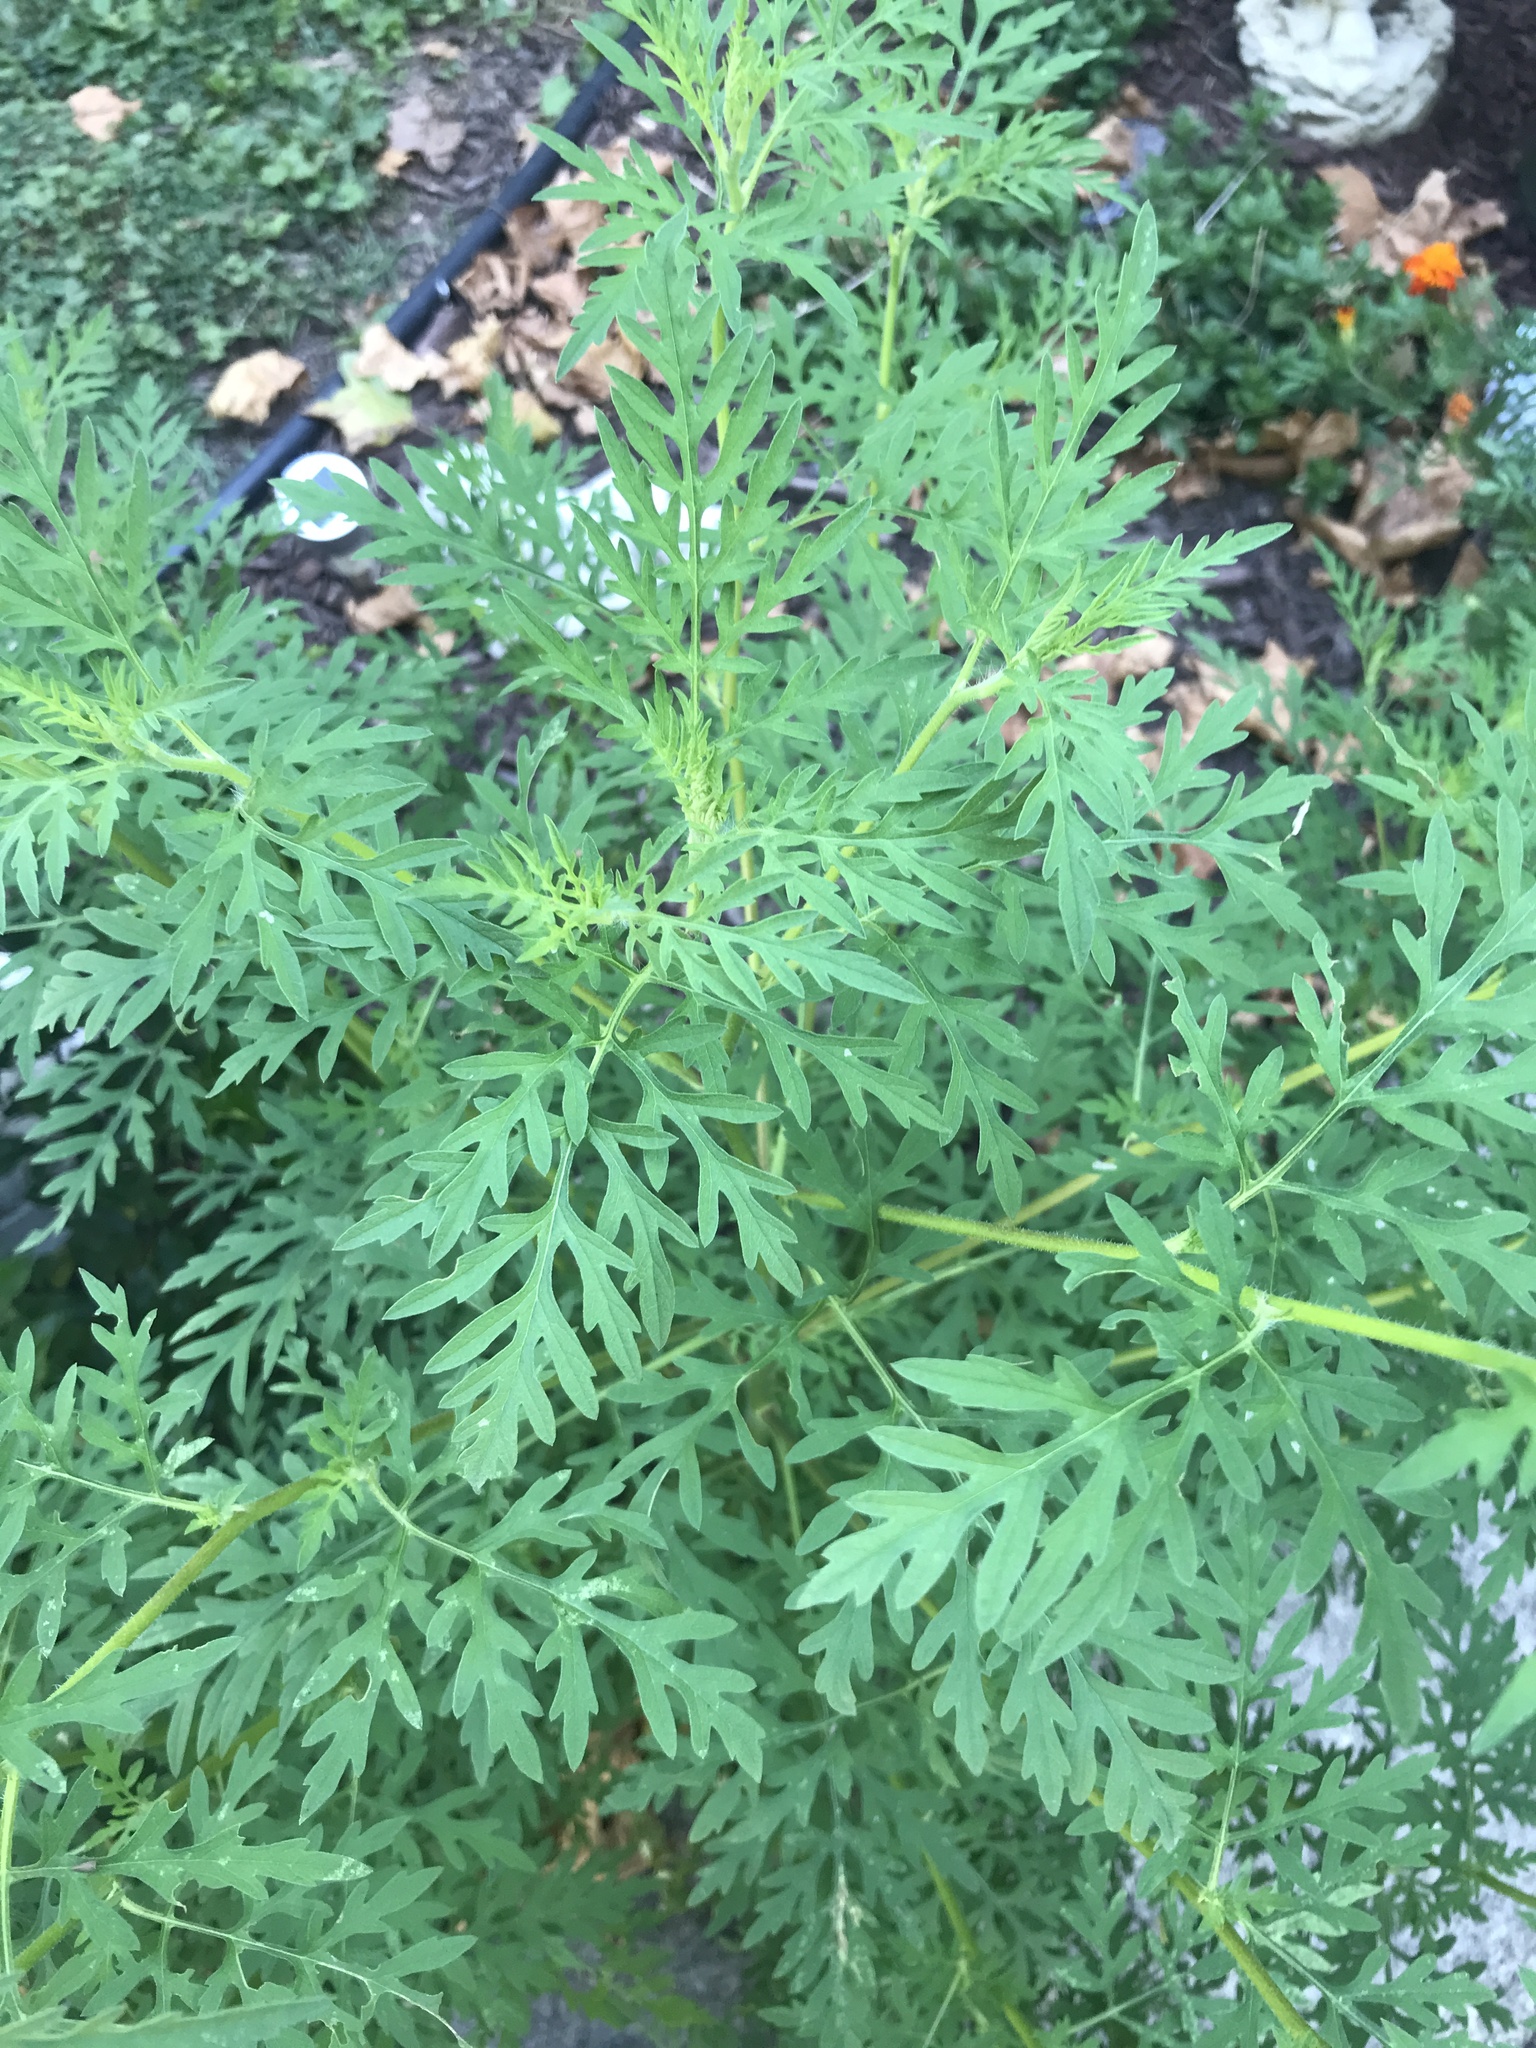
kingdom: Plantae
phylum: Tracheophyta
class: Magnoliopsida
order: Asterales
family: Asteraceae
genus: Ambrosia
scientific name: Ambrosia artemisiifolia
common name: Annual ragweed
